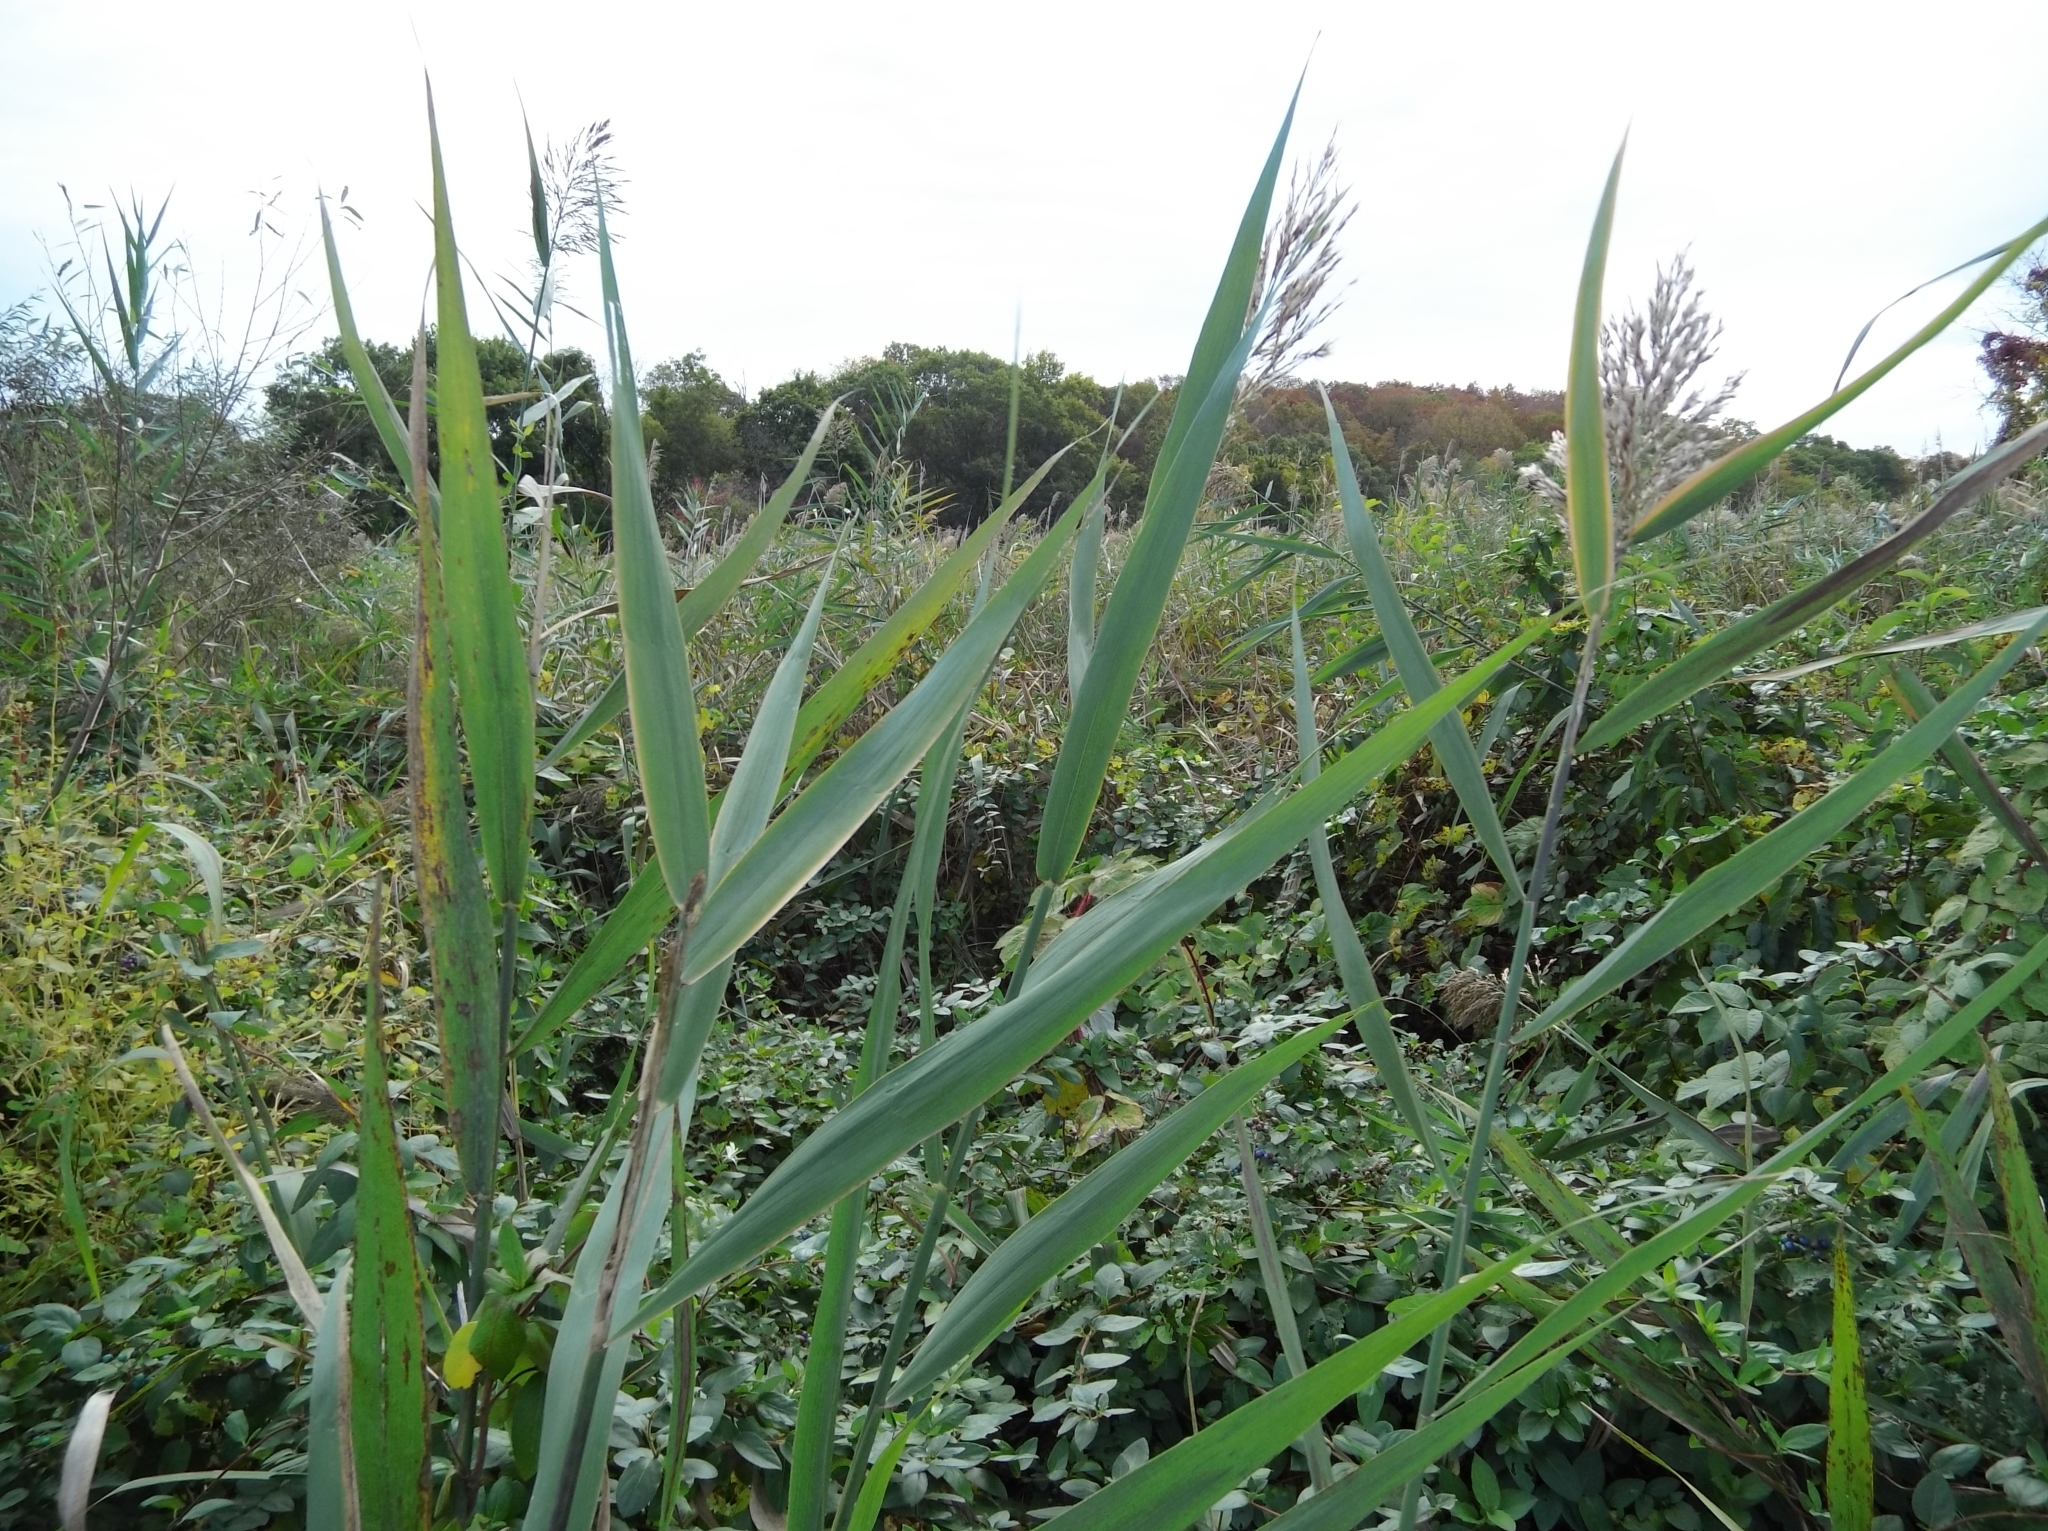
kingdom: Plantae
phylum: Tracheophyta
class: Liliopsida
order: Poales
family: Poaceae
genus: Phragmites
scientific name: Phragmites australis
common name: Common reed
